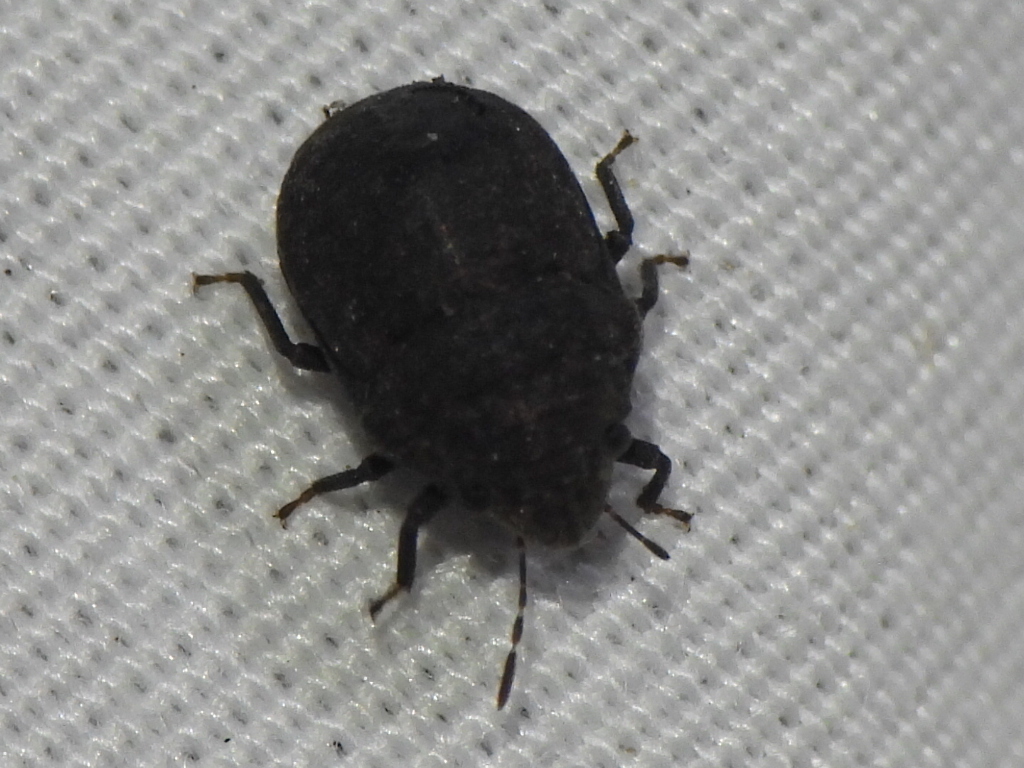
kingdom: Animalia
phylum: Arthropoda
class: Insecta
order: Hemiptera
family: Scutelleridae
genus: Camirus
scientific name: Camirus porosus
